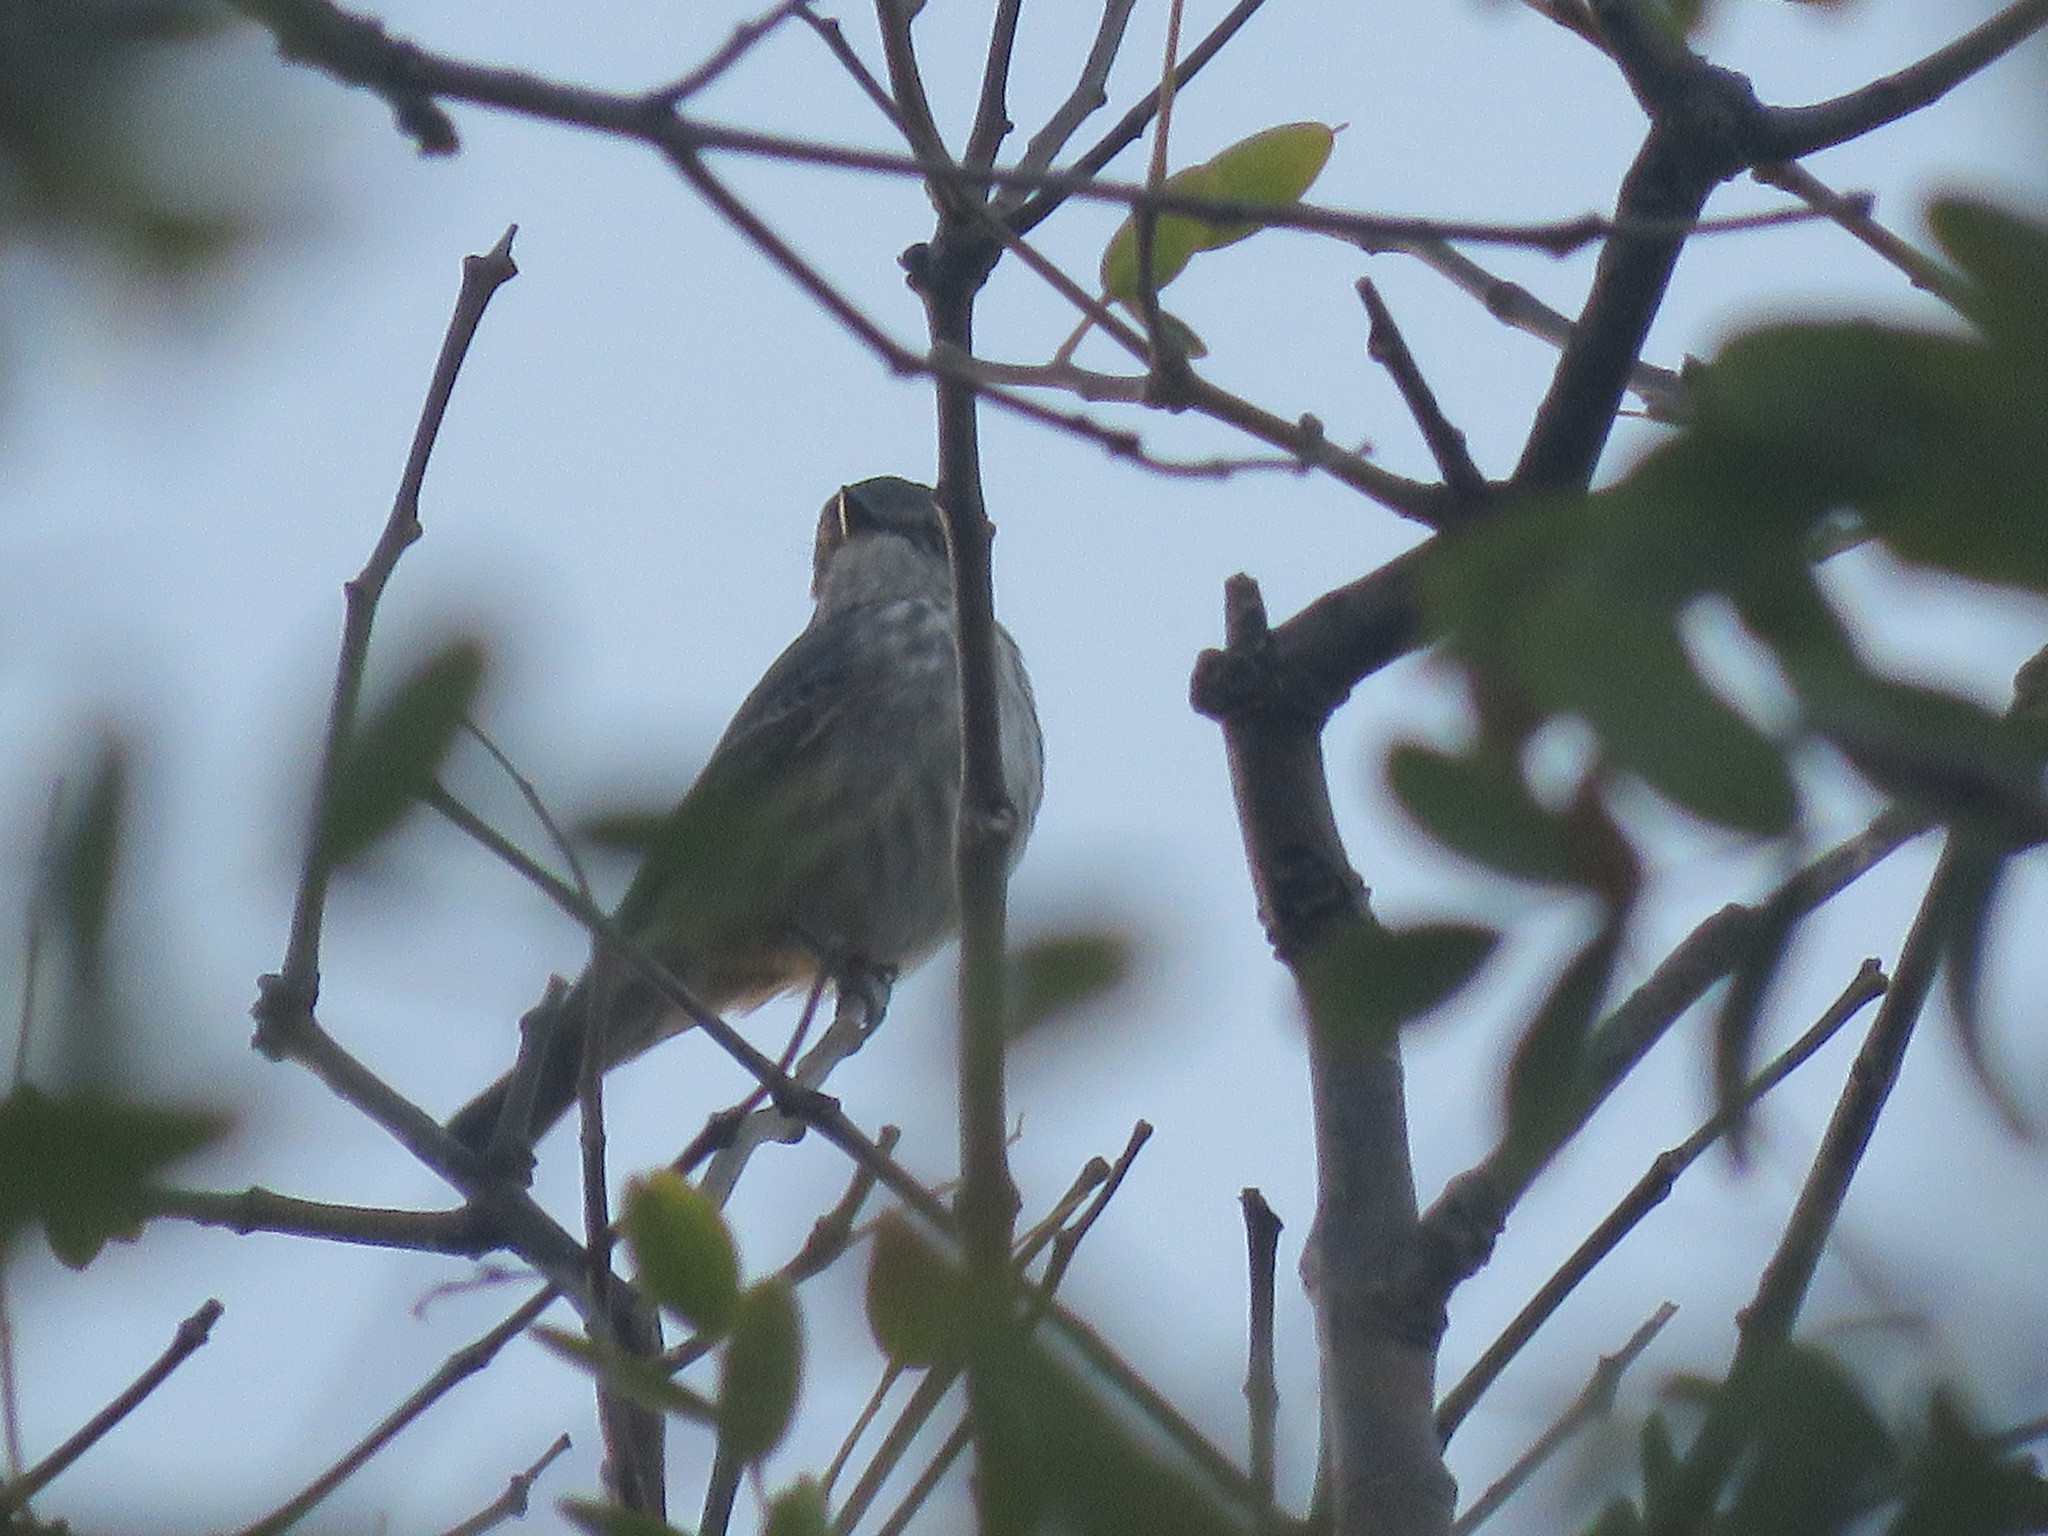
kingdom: Animalia
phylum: Chordata
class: Aves
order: Passeriformes
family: Tyrannidae
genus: Pyrocephalus
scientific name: Pyrocephalus rubinus
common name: Vermilion flycatcher
